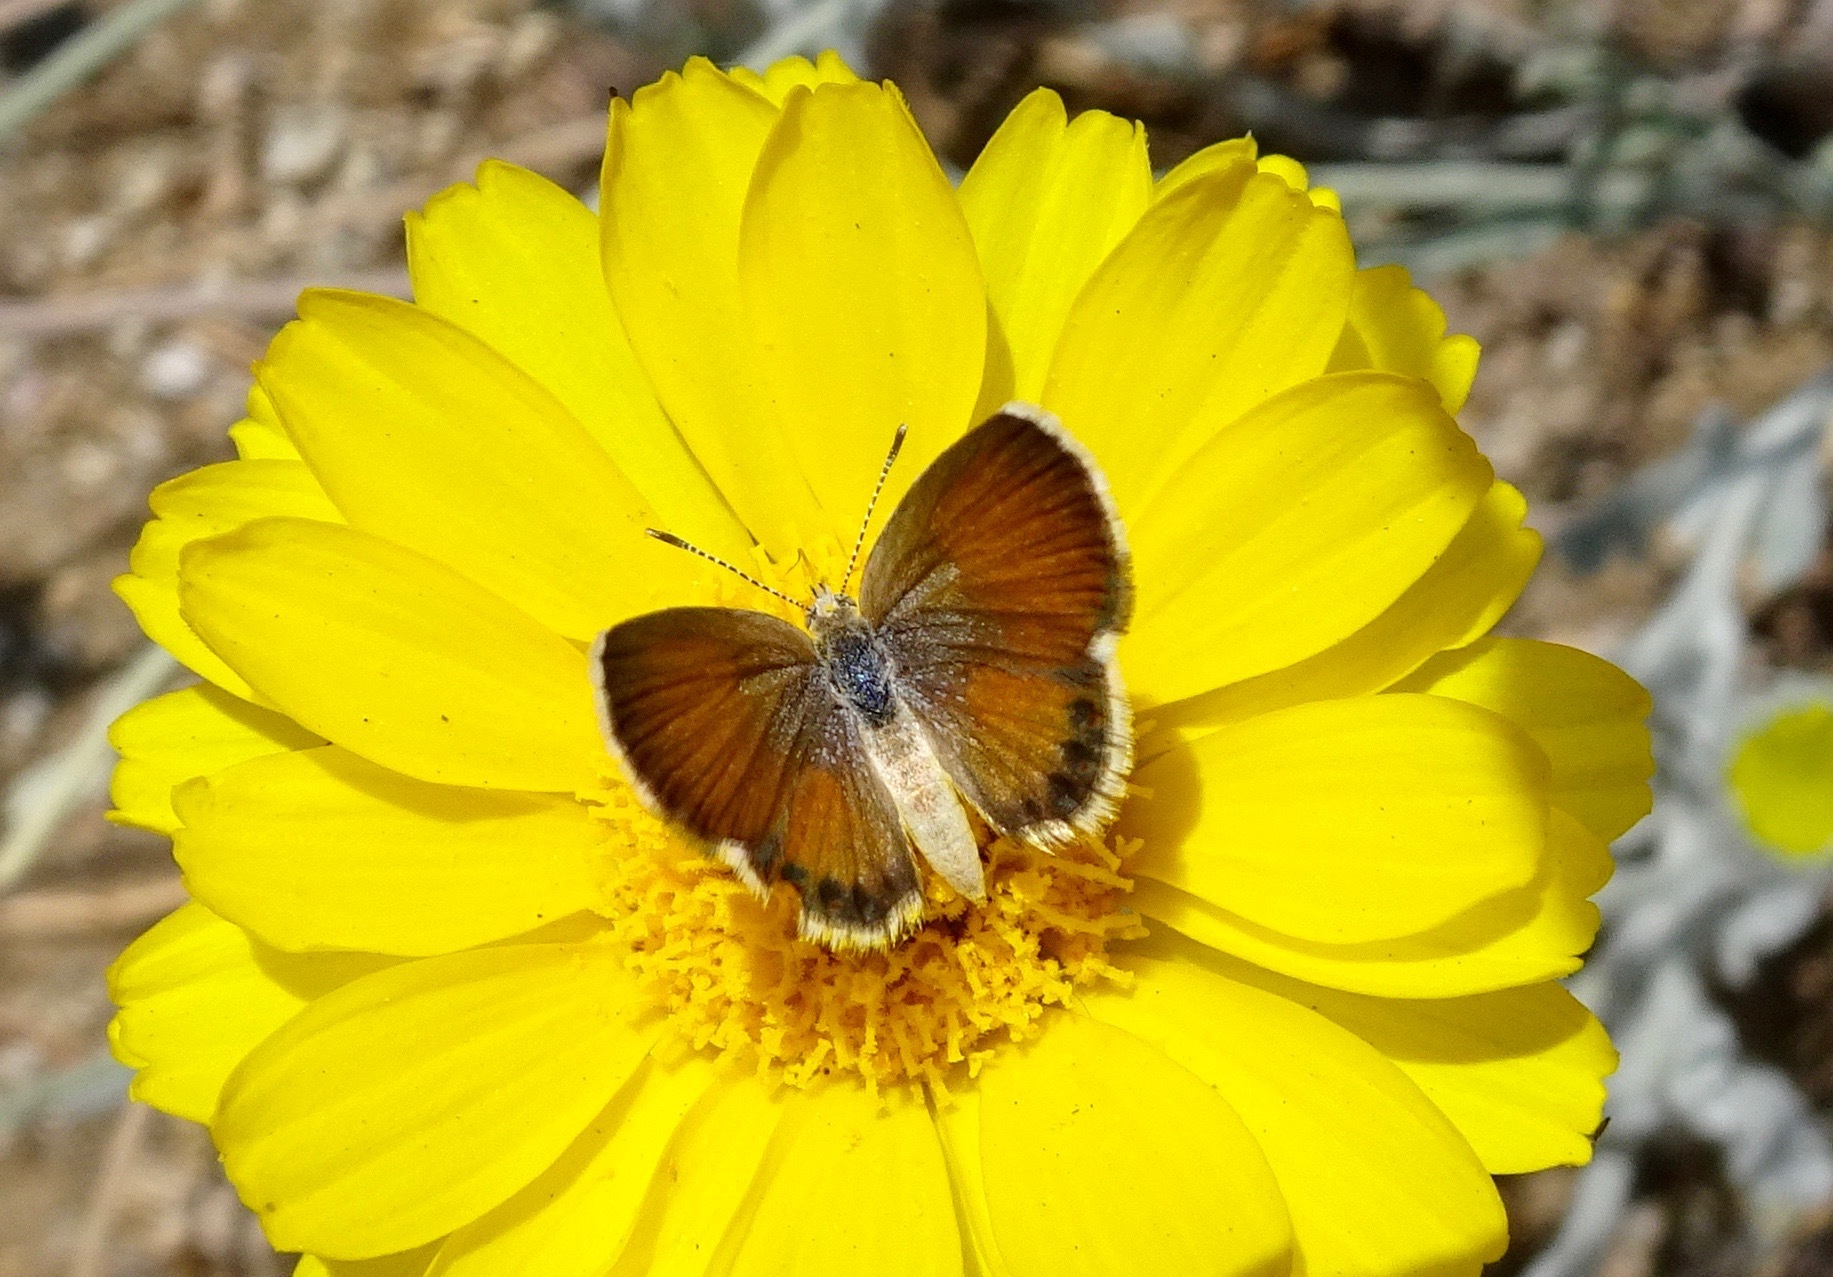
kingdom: Animalia
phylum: Arthropoda
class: Insecta
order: Lepidoptera
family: Lycaenidae
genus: Brephidium
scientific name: Brephidium exilis
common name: Pygmy blue
